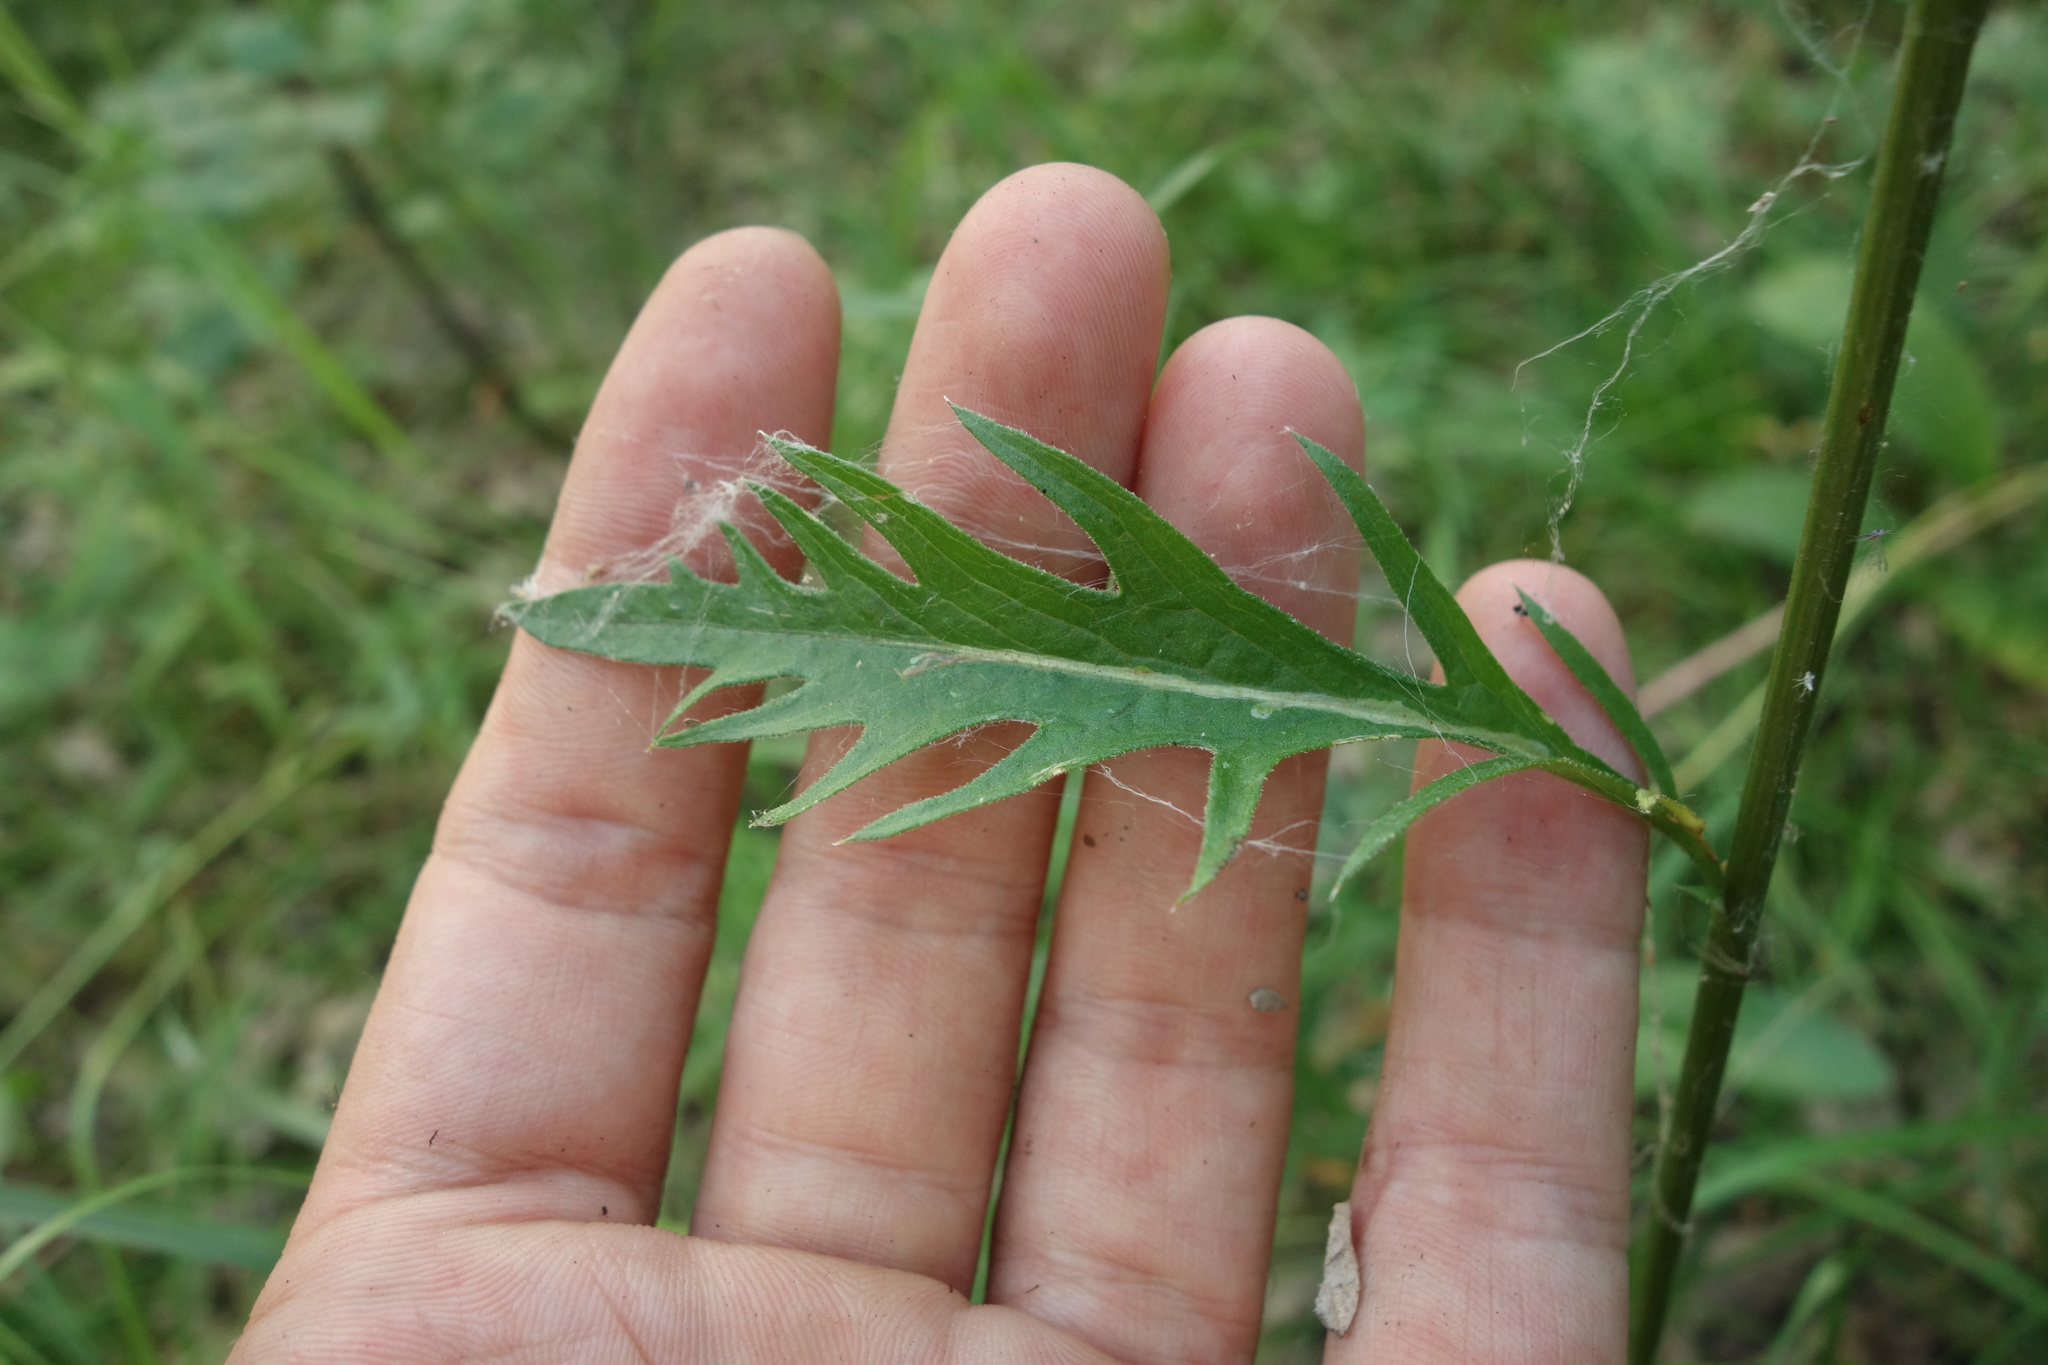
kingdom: Plantae
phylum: Tracheophyta
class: Magnoliopsida
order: Asterales
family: Asteraceae
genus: Klasea
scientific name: Klasea lycopifolia
